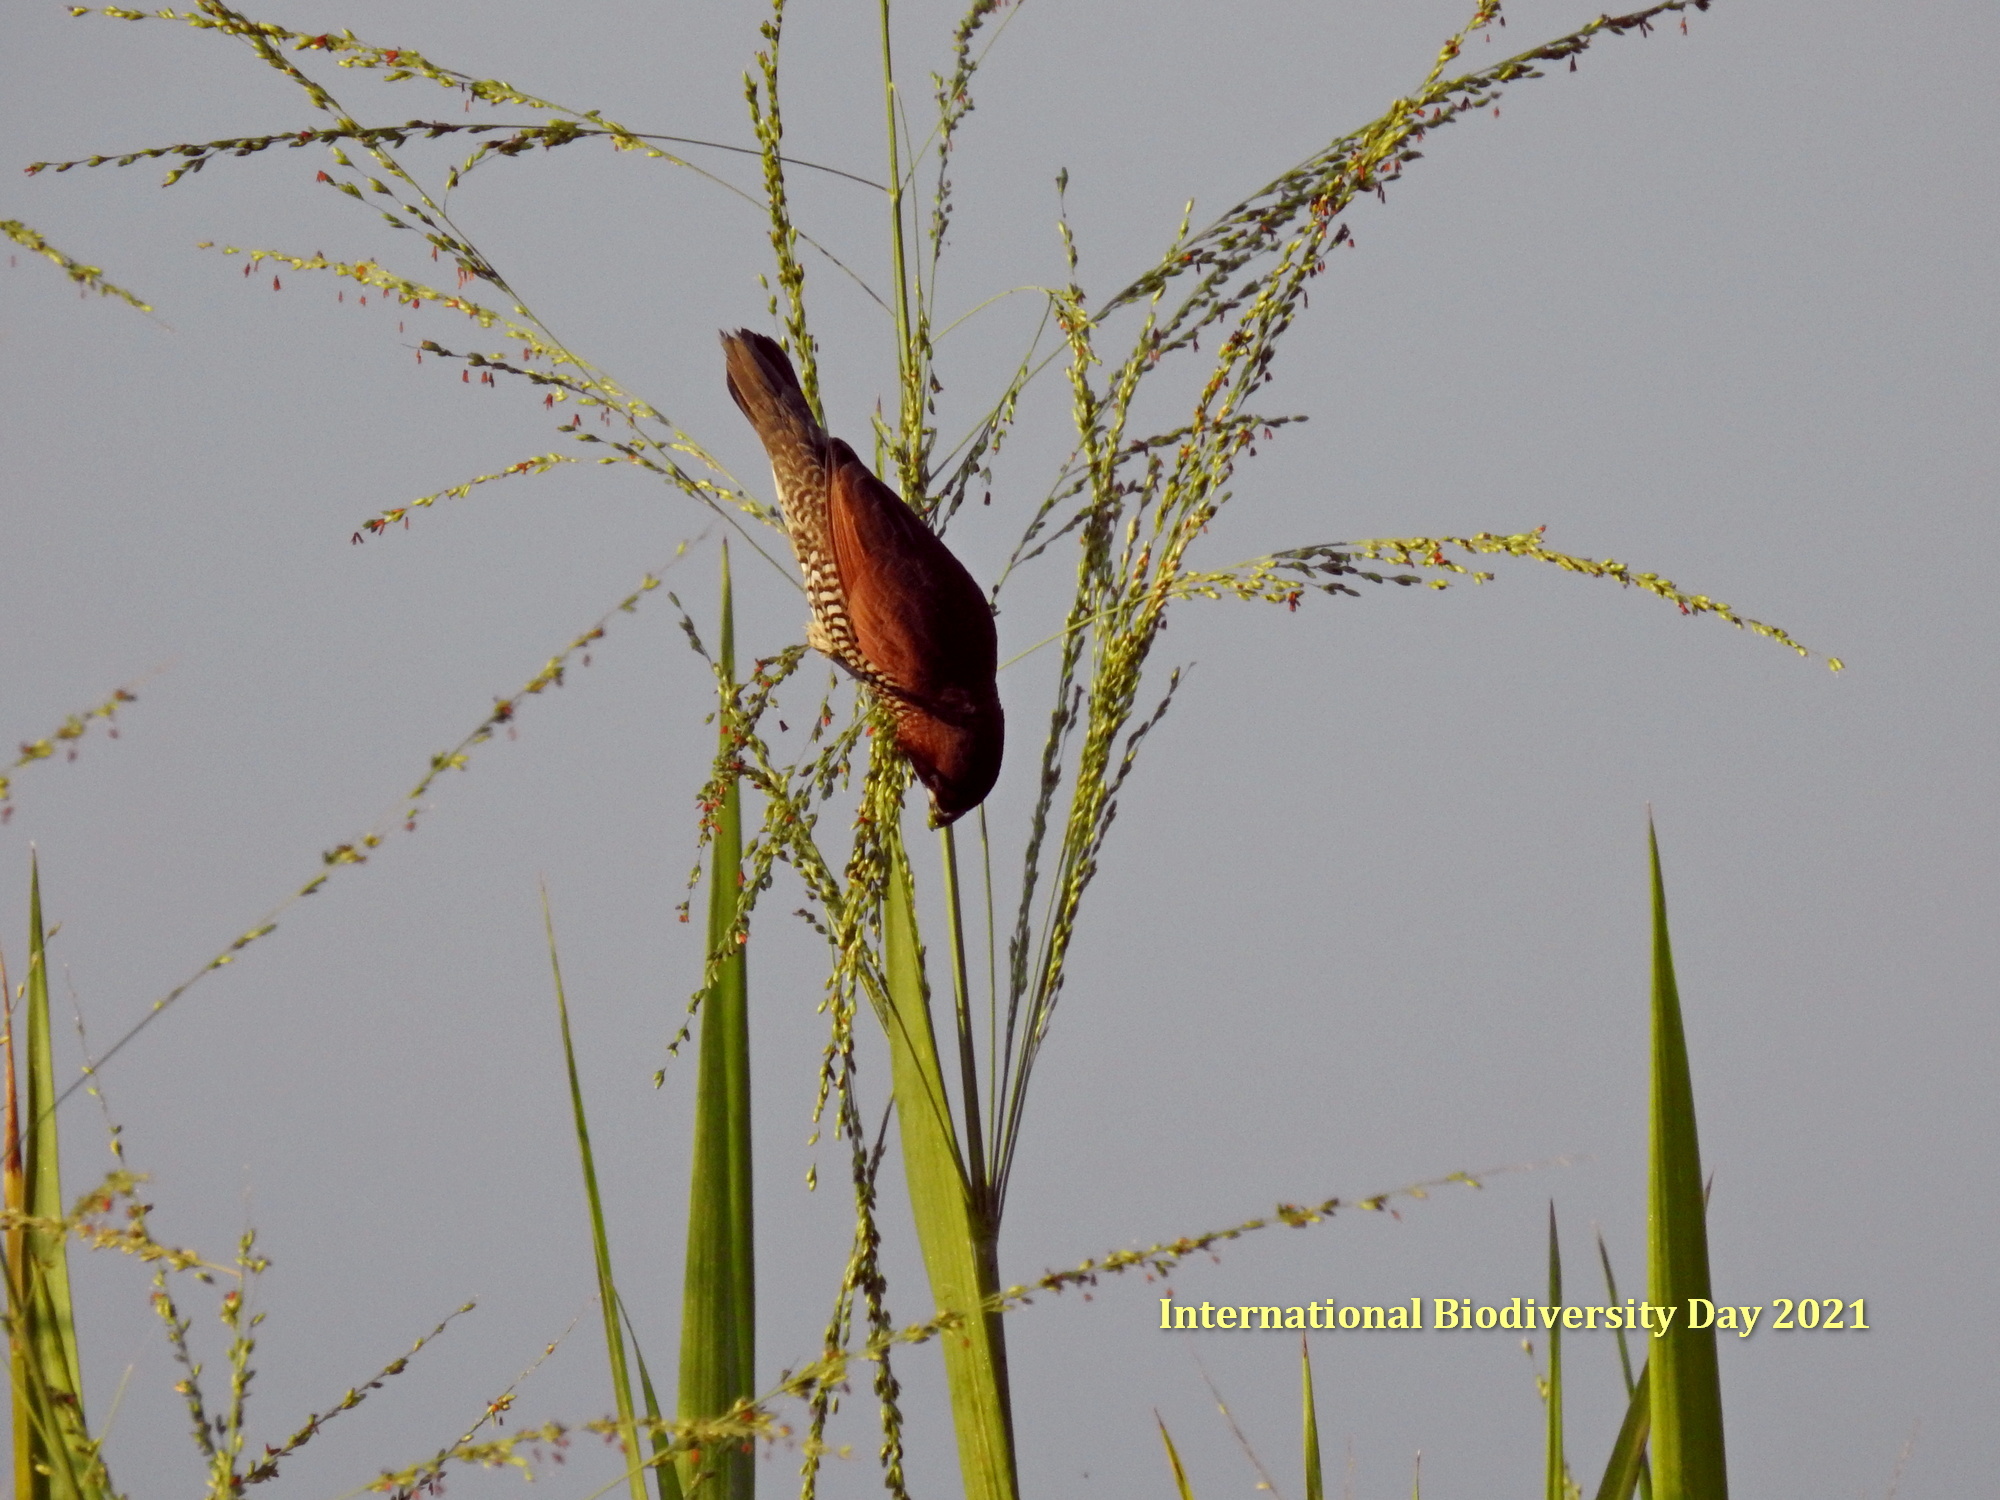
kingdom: Animalia
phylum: Chordata
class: Aves
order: Passeriformes
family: Estrildidae
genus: Lonchura
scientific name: Lonchura punctulata
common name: Scaly-breasted munia
